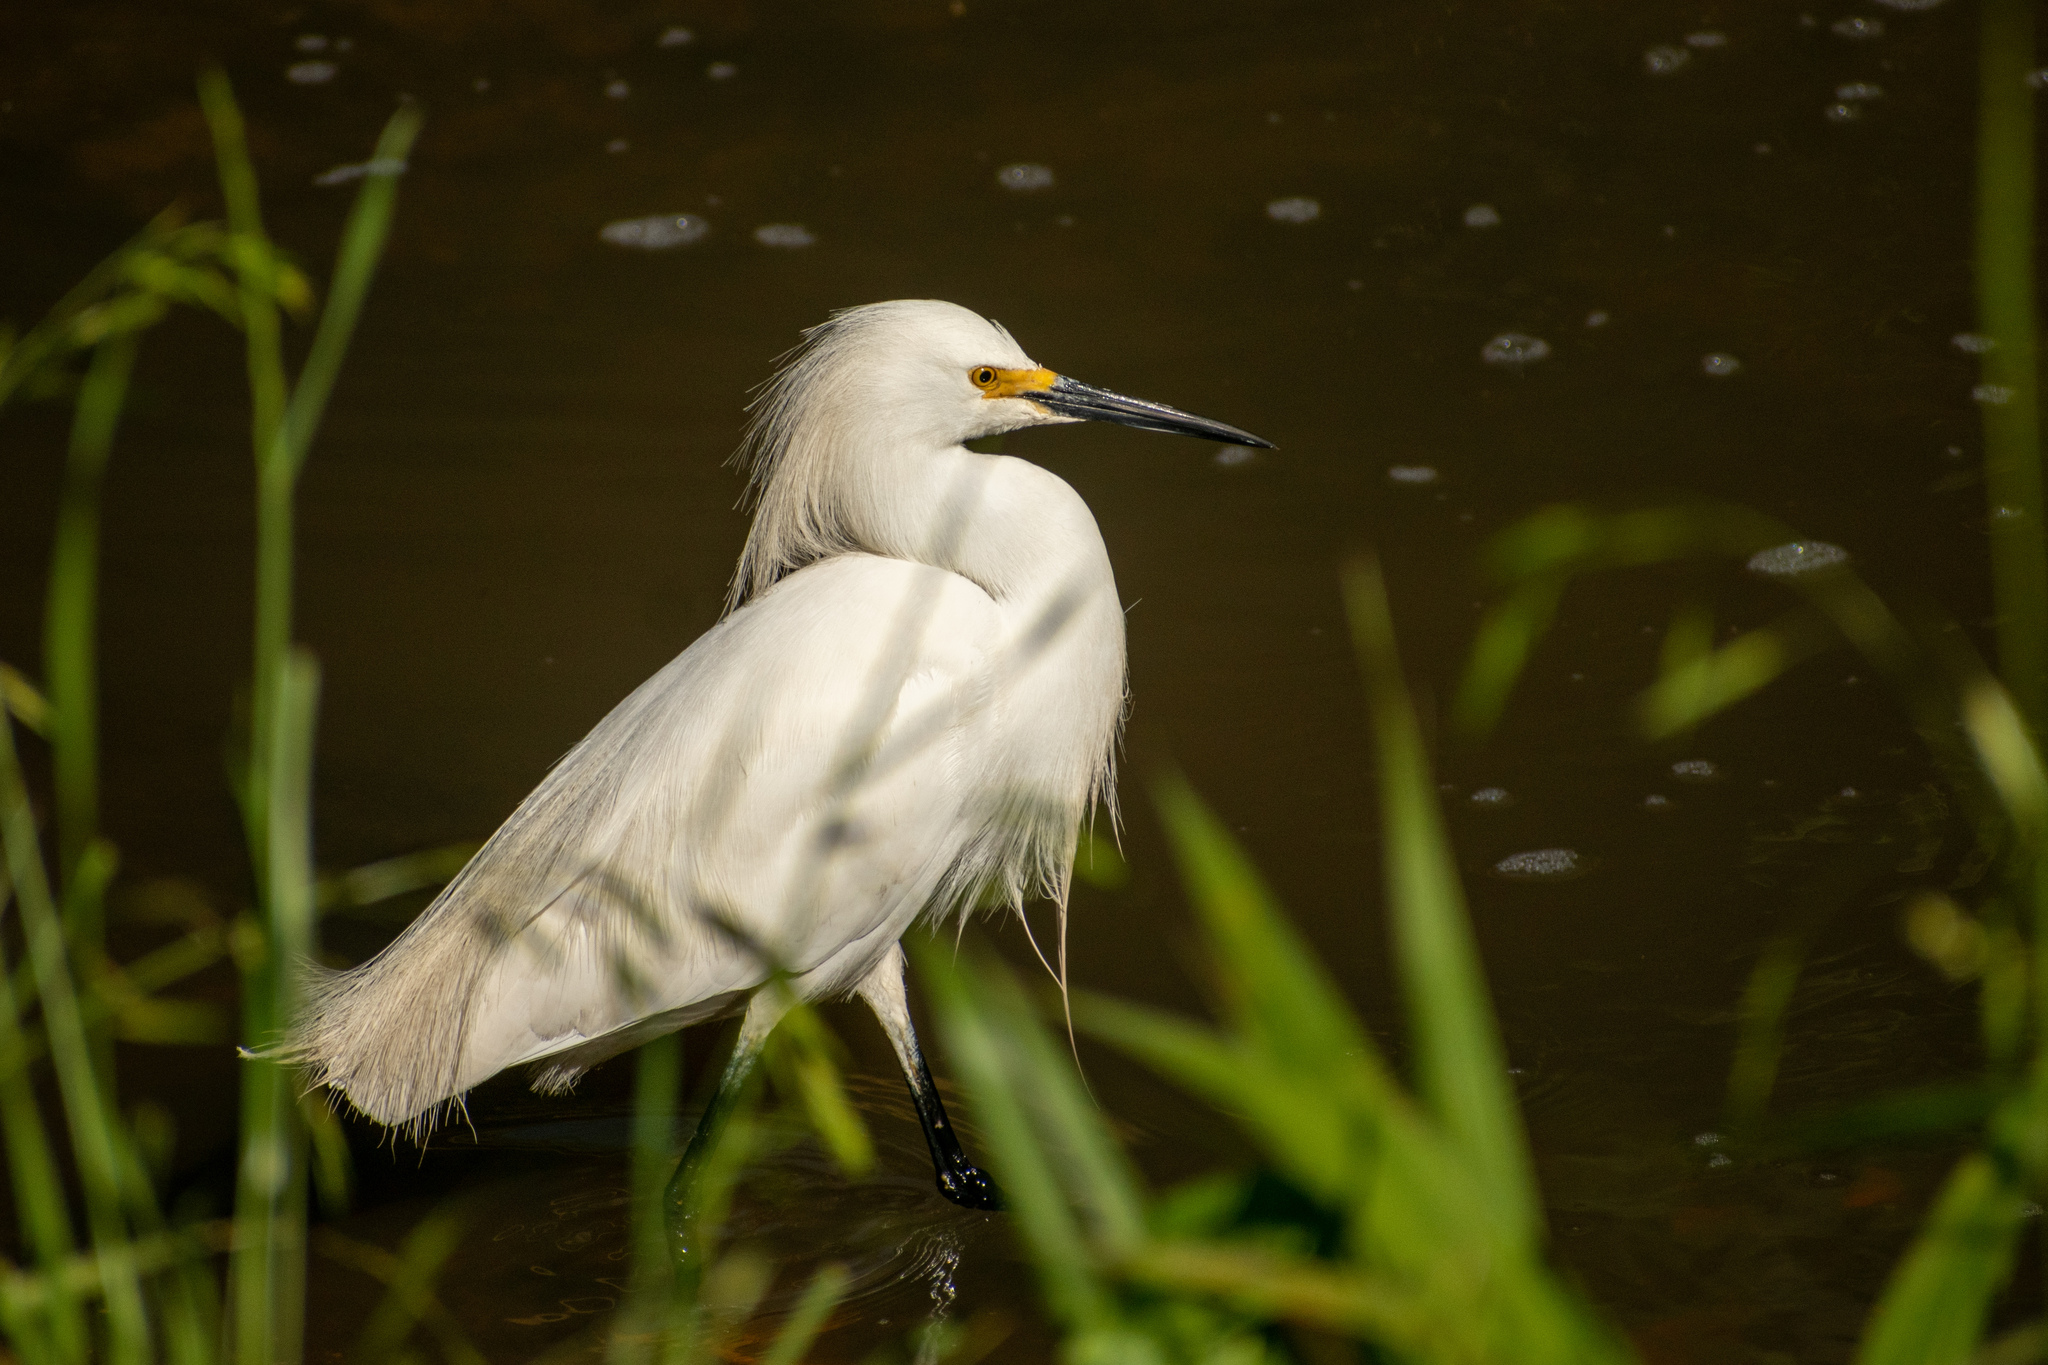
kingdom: Animalia
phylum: Chordata
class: Aves
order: Pelecaniformes
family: Ardeidae
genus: Egretta
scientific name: Egretta thula
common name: Snowy egret
